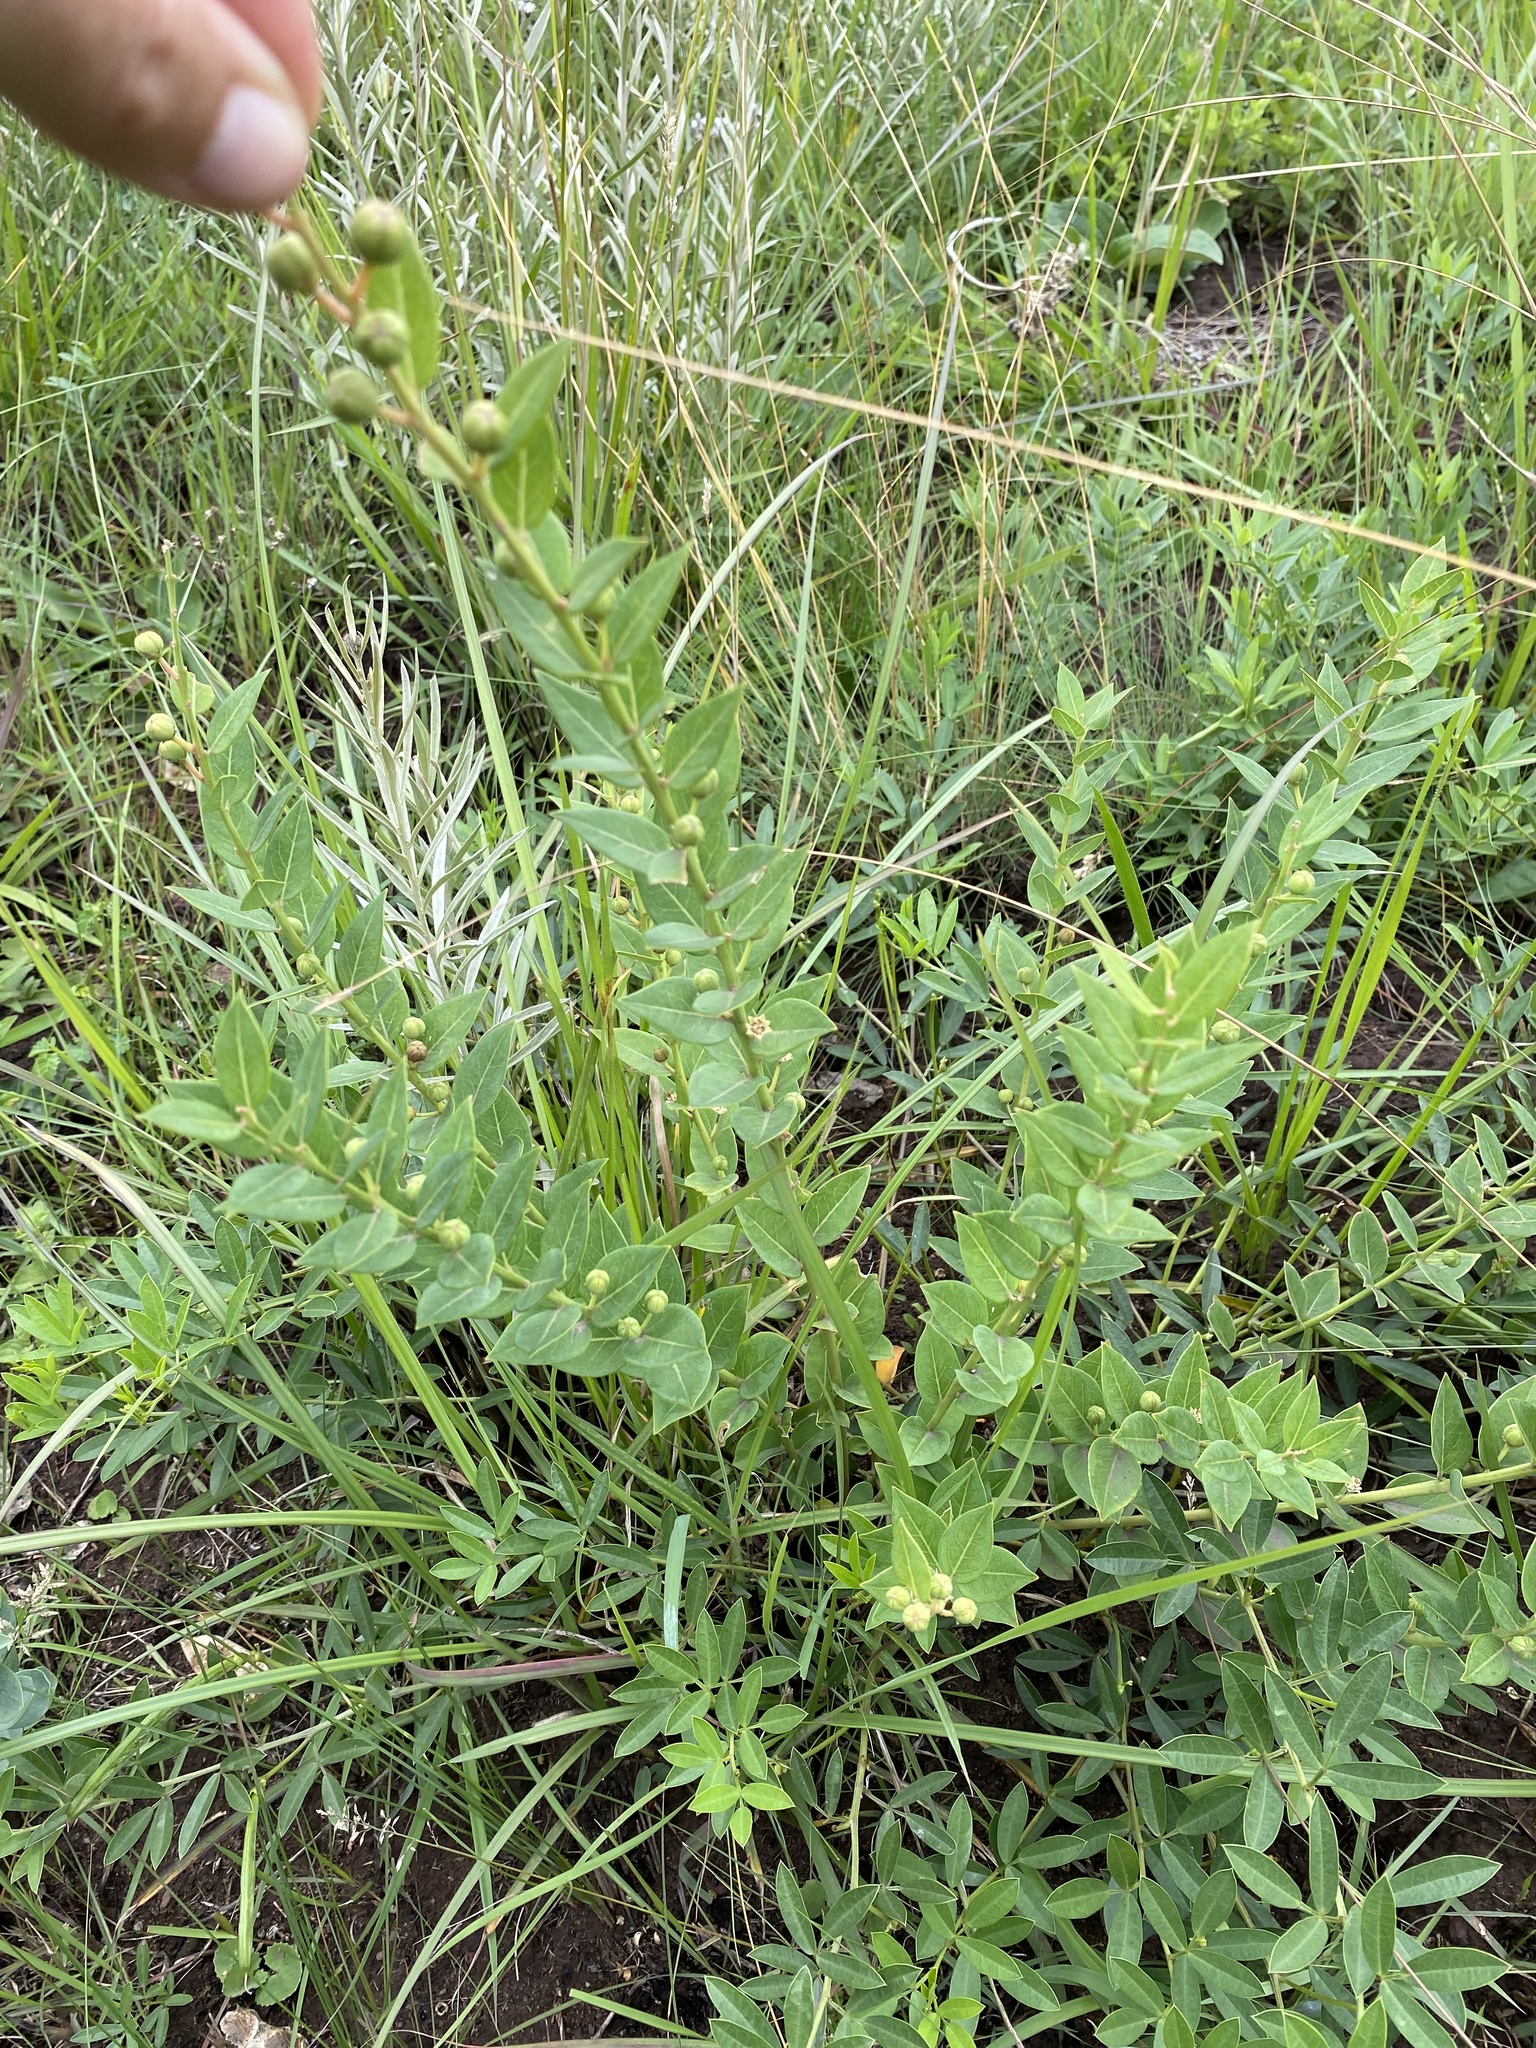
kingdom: Plantae
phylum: Tracheophyta
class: Magnoliopsida
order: Malpighiales
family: Peraceae
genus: Clutia
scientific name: Clutia cordata
